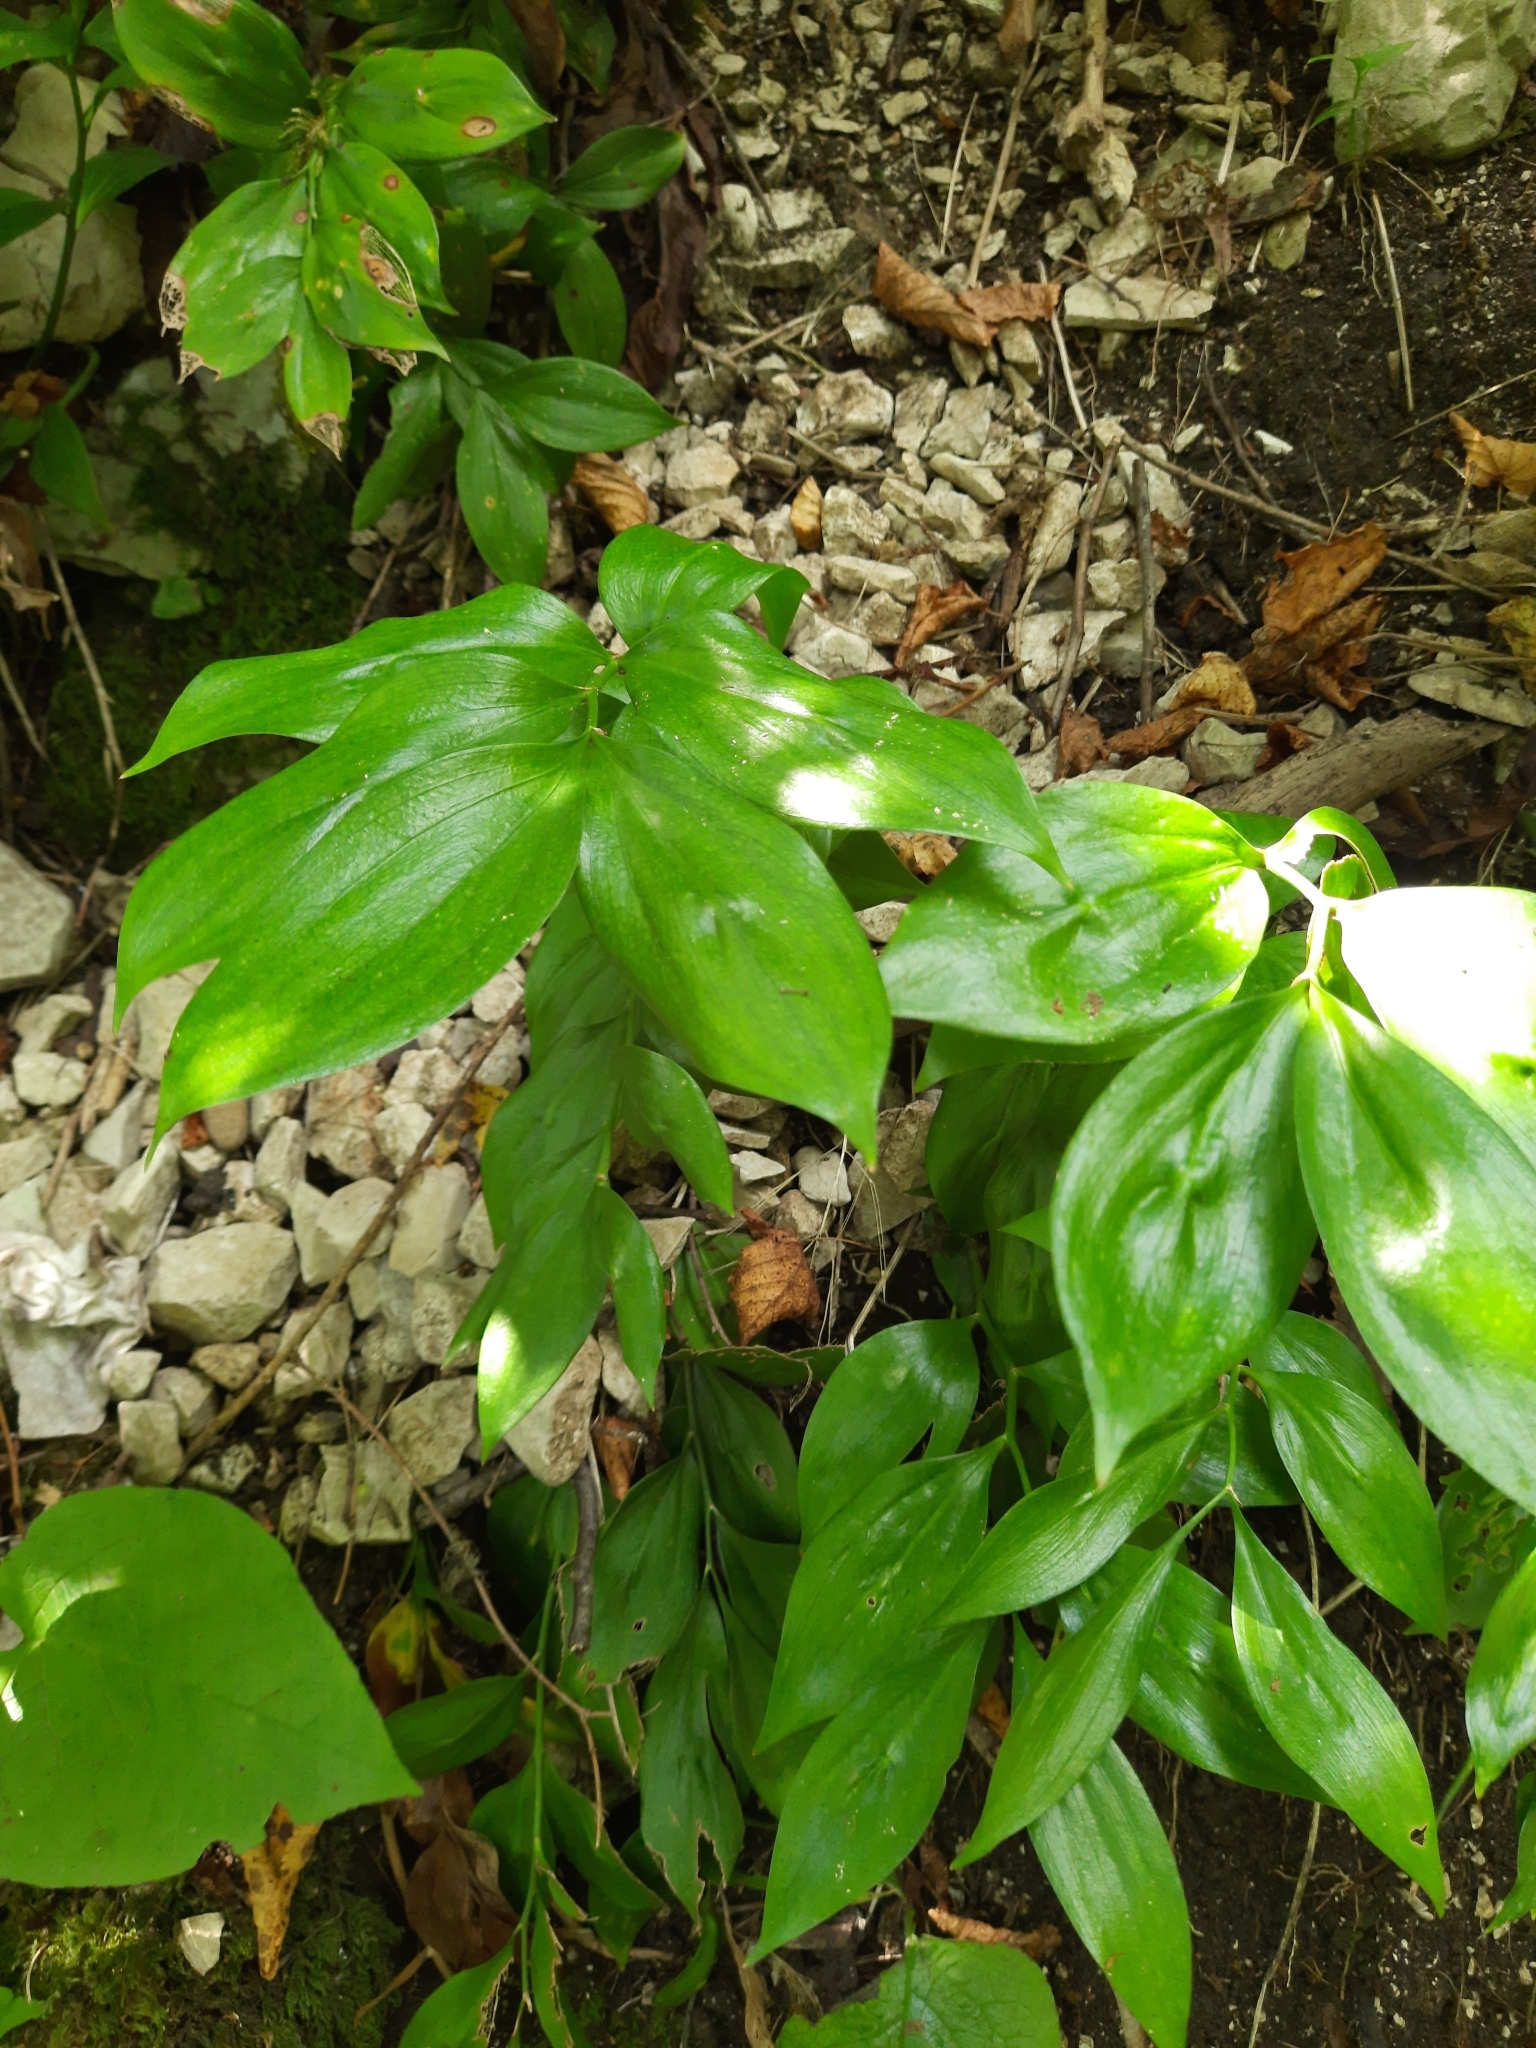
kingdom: Plantae
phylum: Tracheophyta
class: Liliopsida
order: Asparagales
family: Asparagaceae
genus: Ruscus
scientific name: Ruscus colchicus
